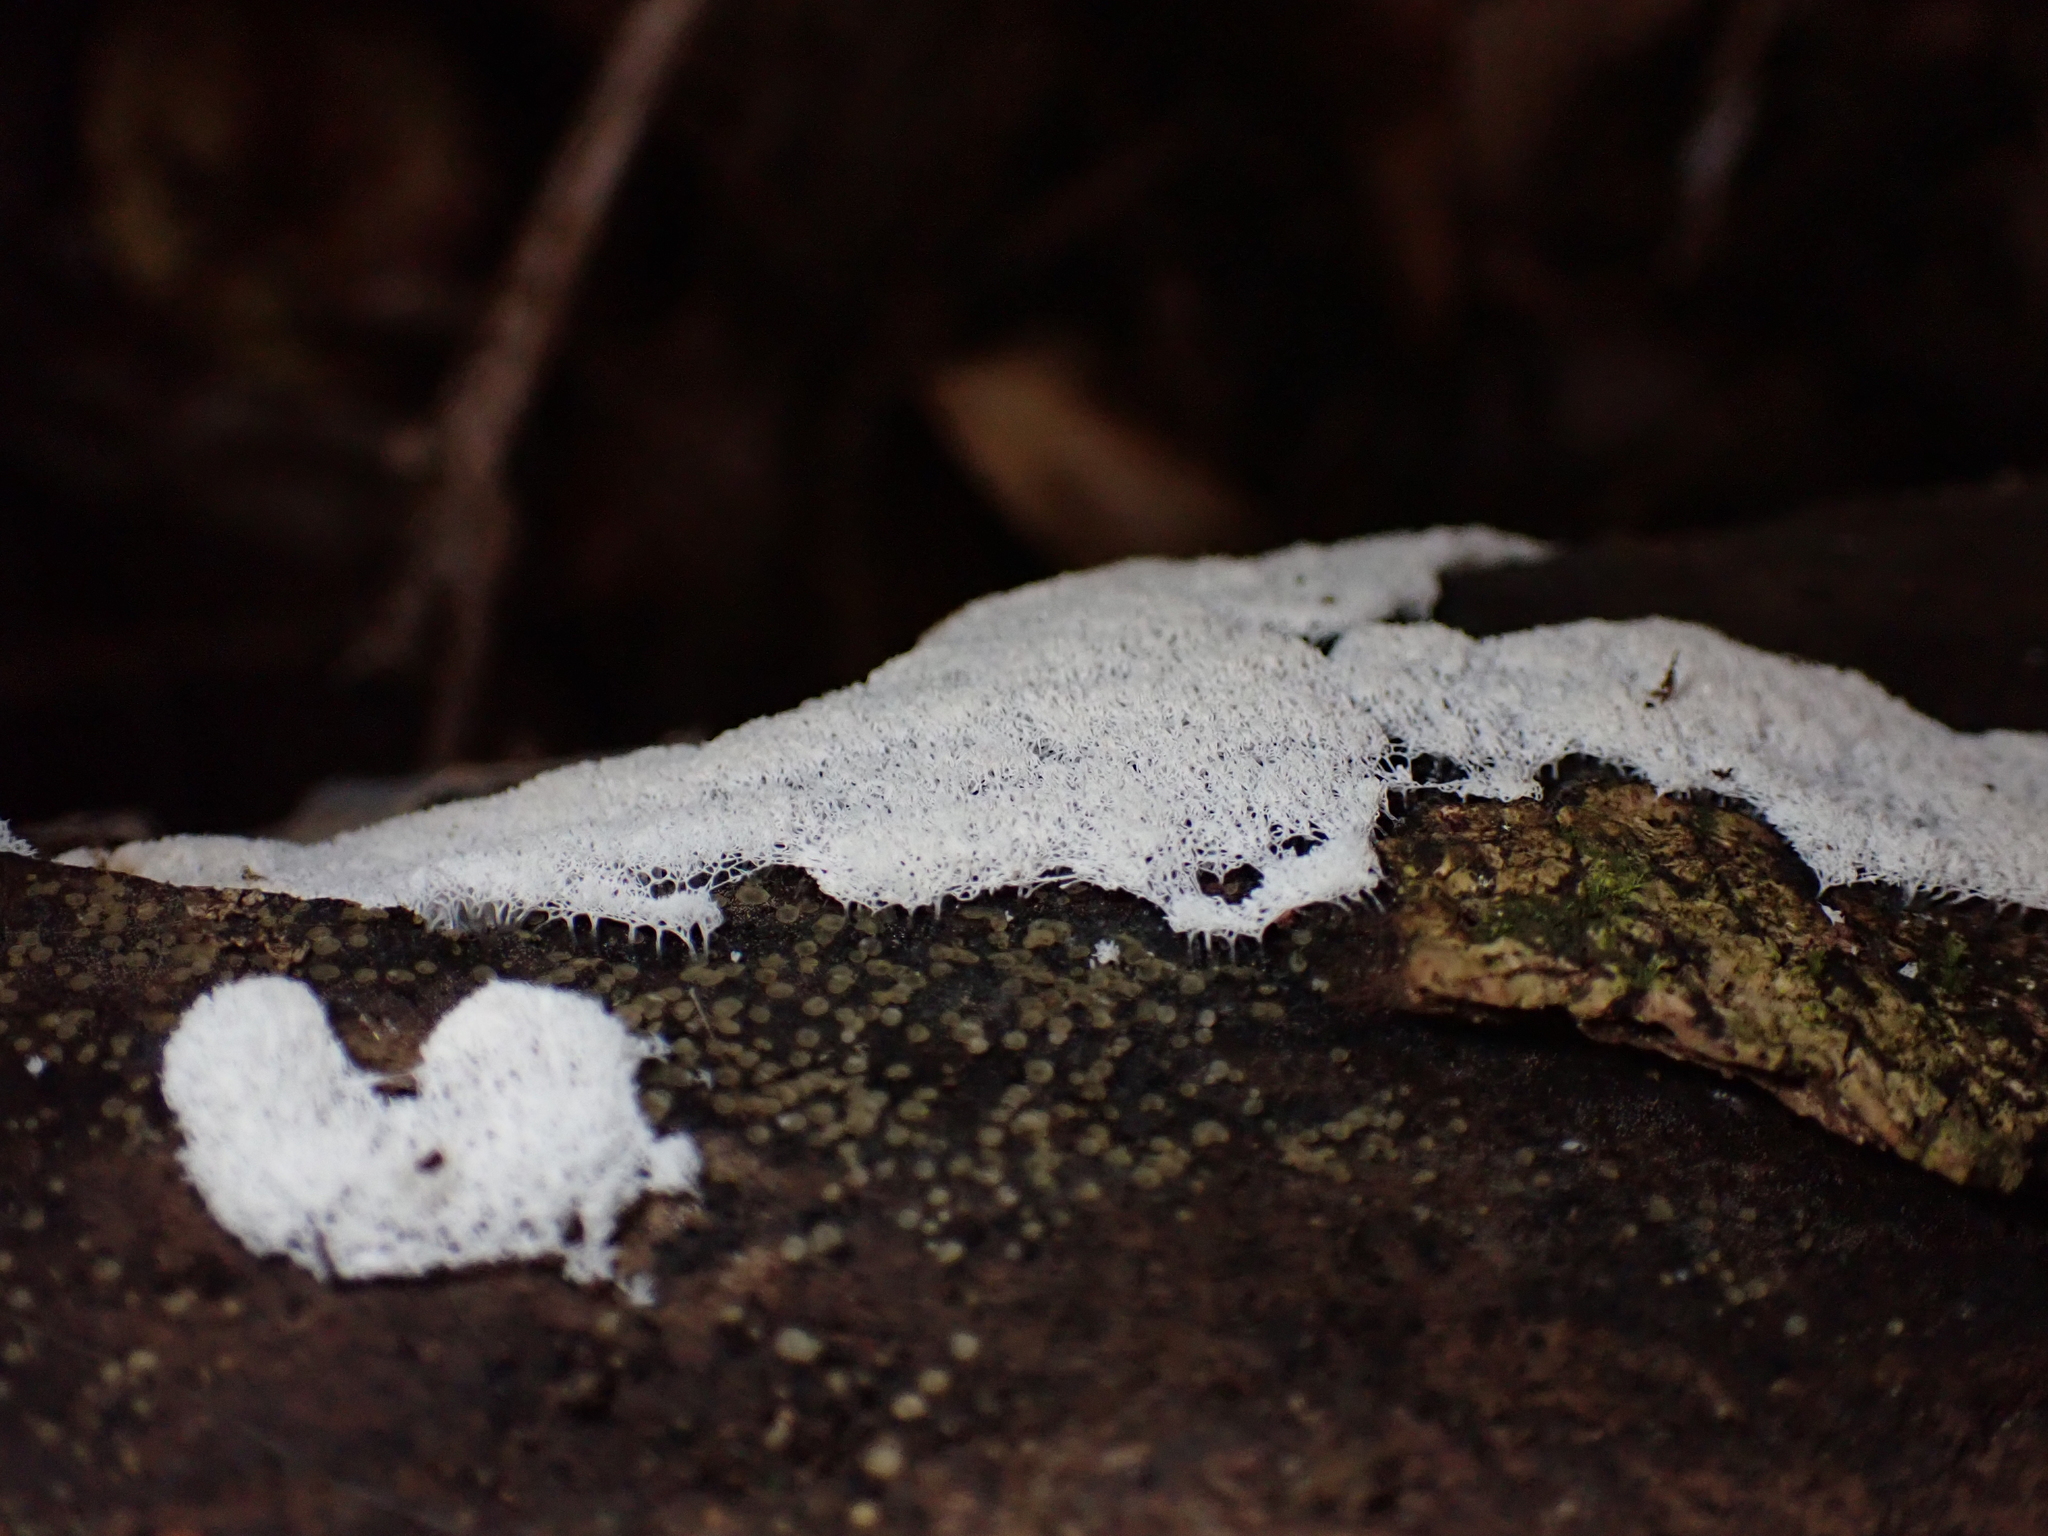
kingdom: Protozoa
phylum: Mycetozoa
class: Protosteliomycetes
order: Ceratiomyxales
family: Ceratiomyxaceae
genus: Ceratiomyxa
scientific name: Ceratiomyxa fruticulosa
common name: Honeycomb coral slime mold
